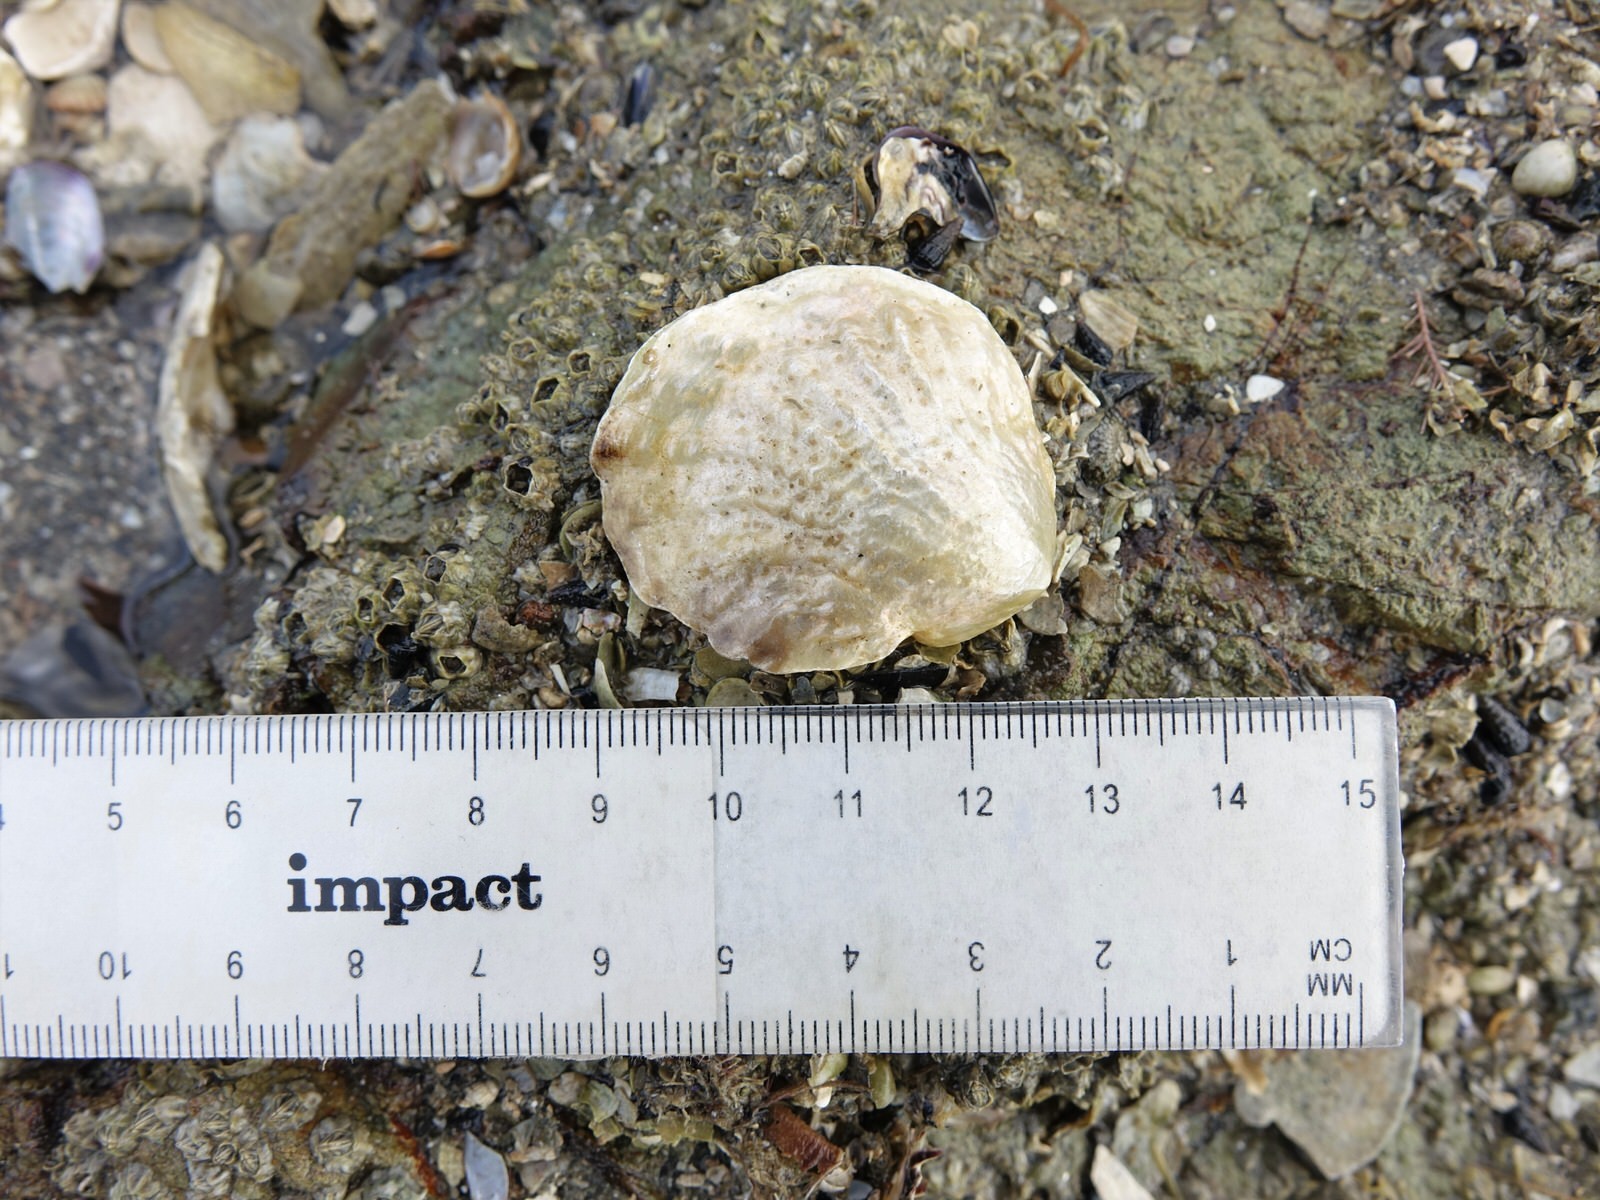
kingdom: Animalia
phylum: Mollusca
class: Bivalvia
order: Pectinida
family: Anomiidae
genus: Anomia
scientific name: Anomia trigonopsis
